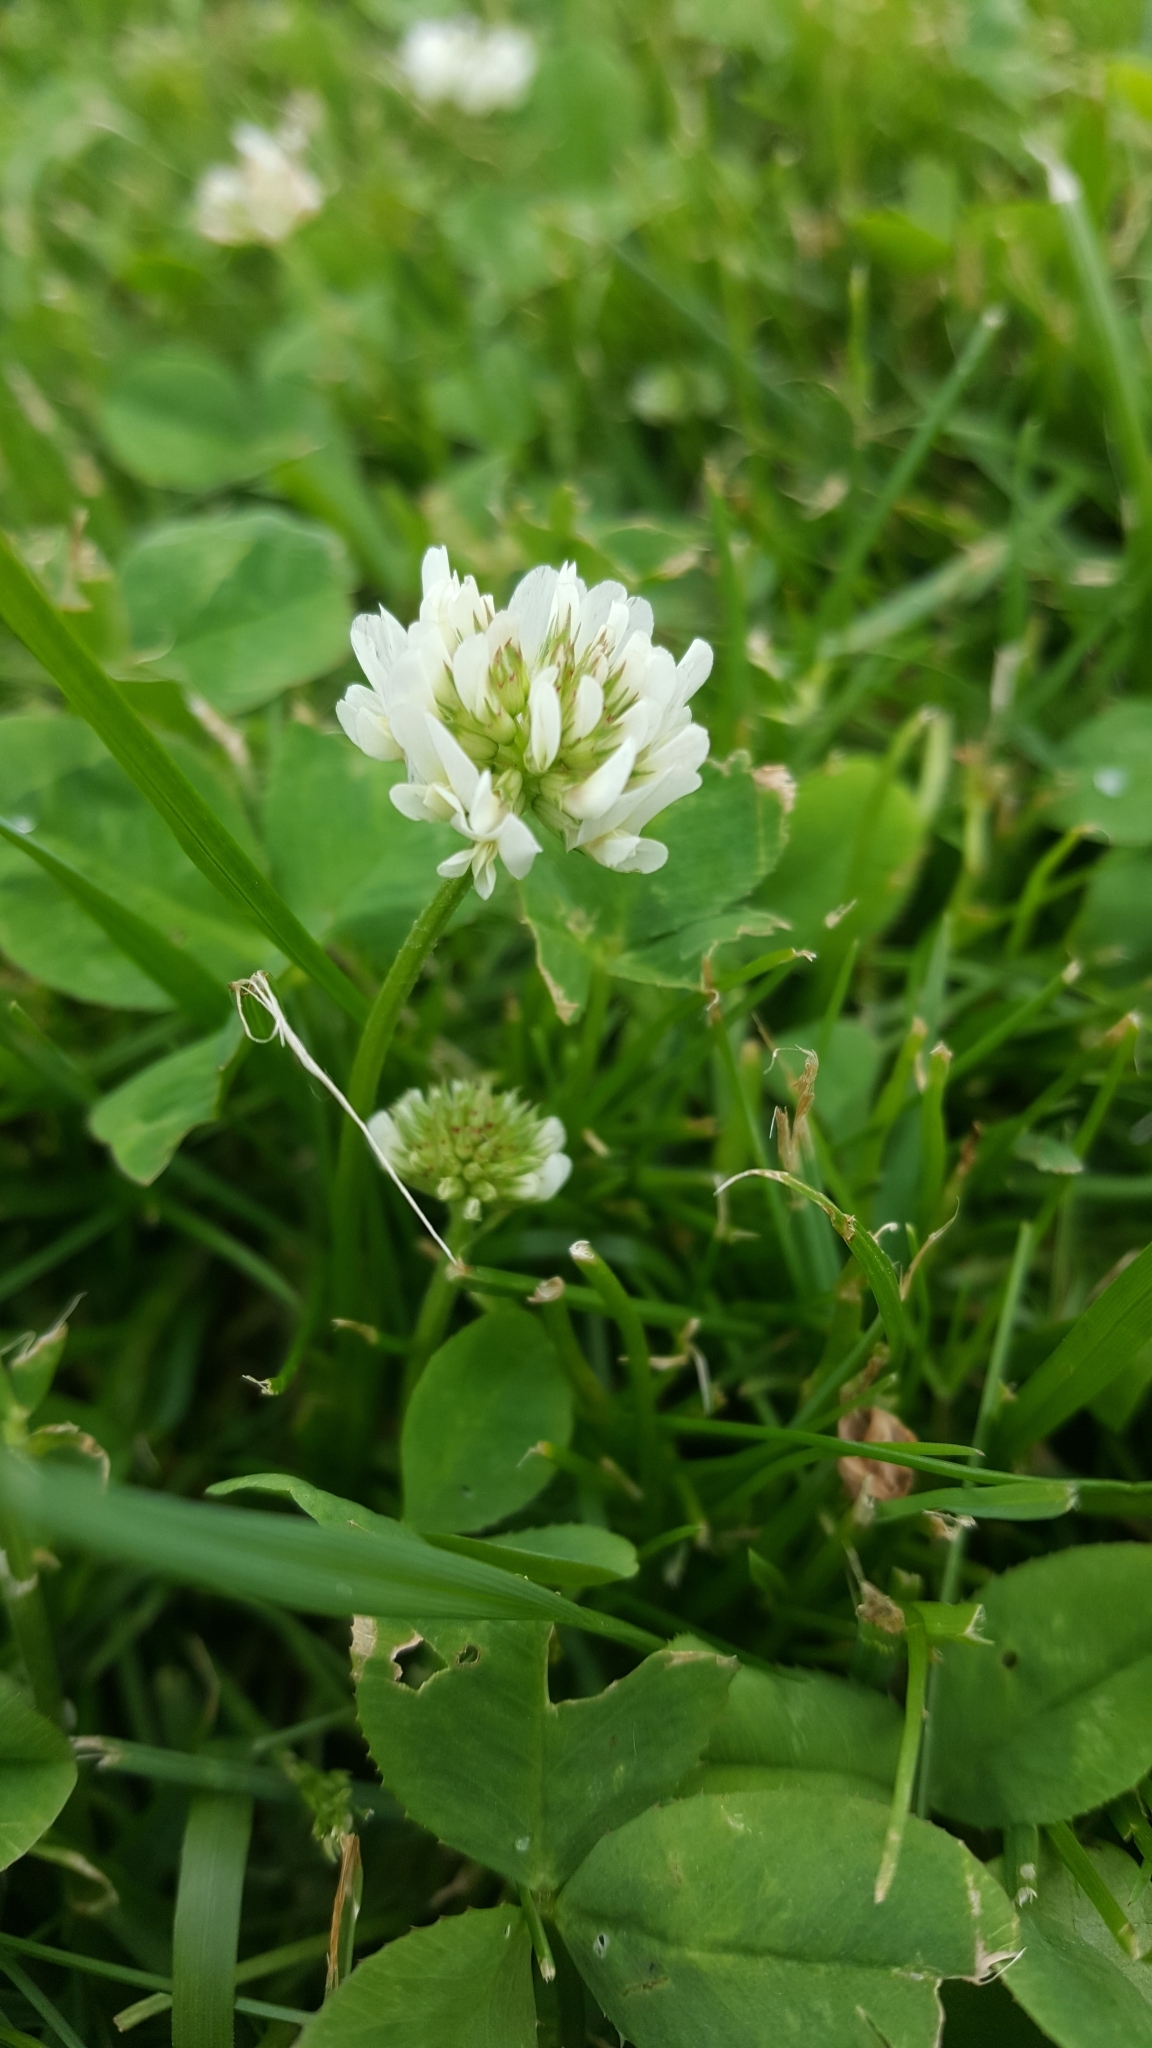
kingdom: Plantae
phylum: Tracheophyta
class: Magnoliopsida
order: Fabales
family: Fabaceae
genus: Trifolium
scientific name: Trifolium repens
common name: White clover
